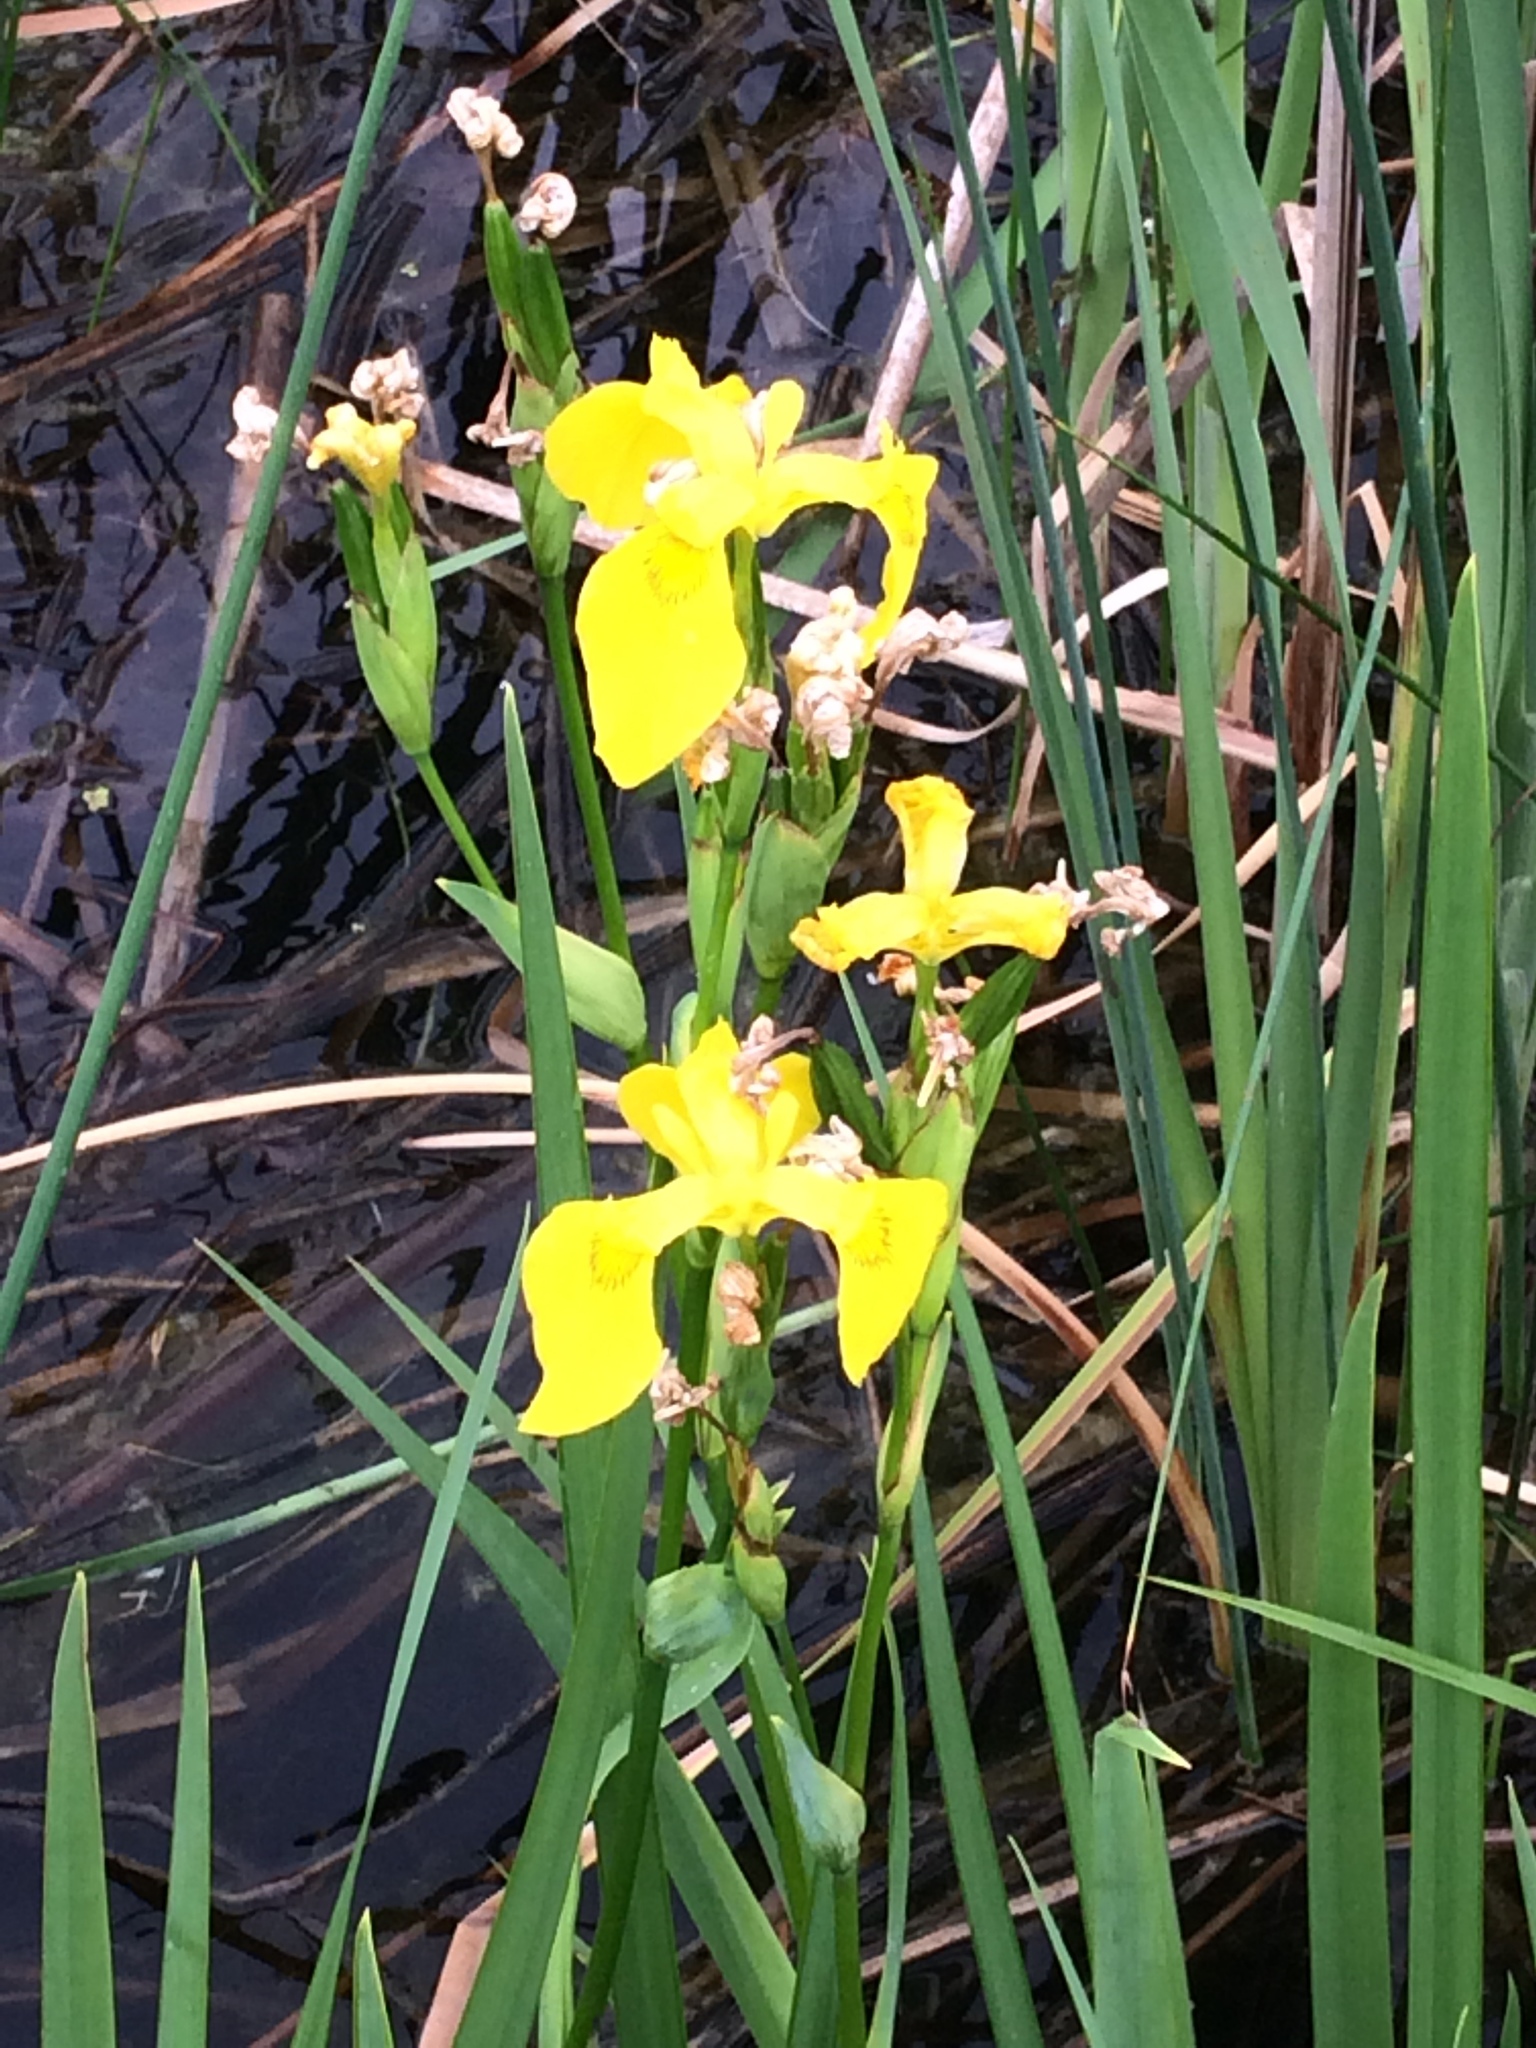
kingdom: Plantae
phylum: Tracheophyta
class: Liliopsida
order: Asparagales
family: Iridaceae
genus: Iris
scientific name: Iris pseudacorus
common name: Yellow flag
